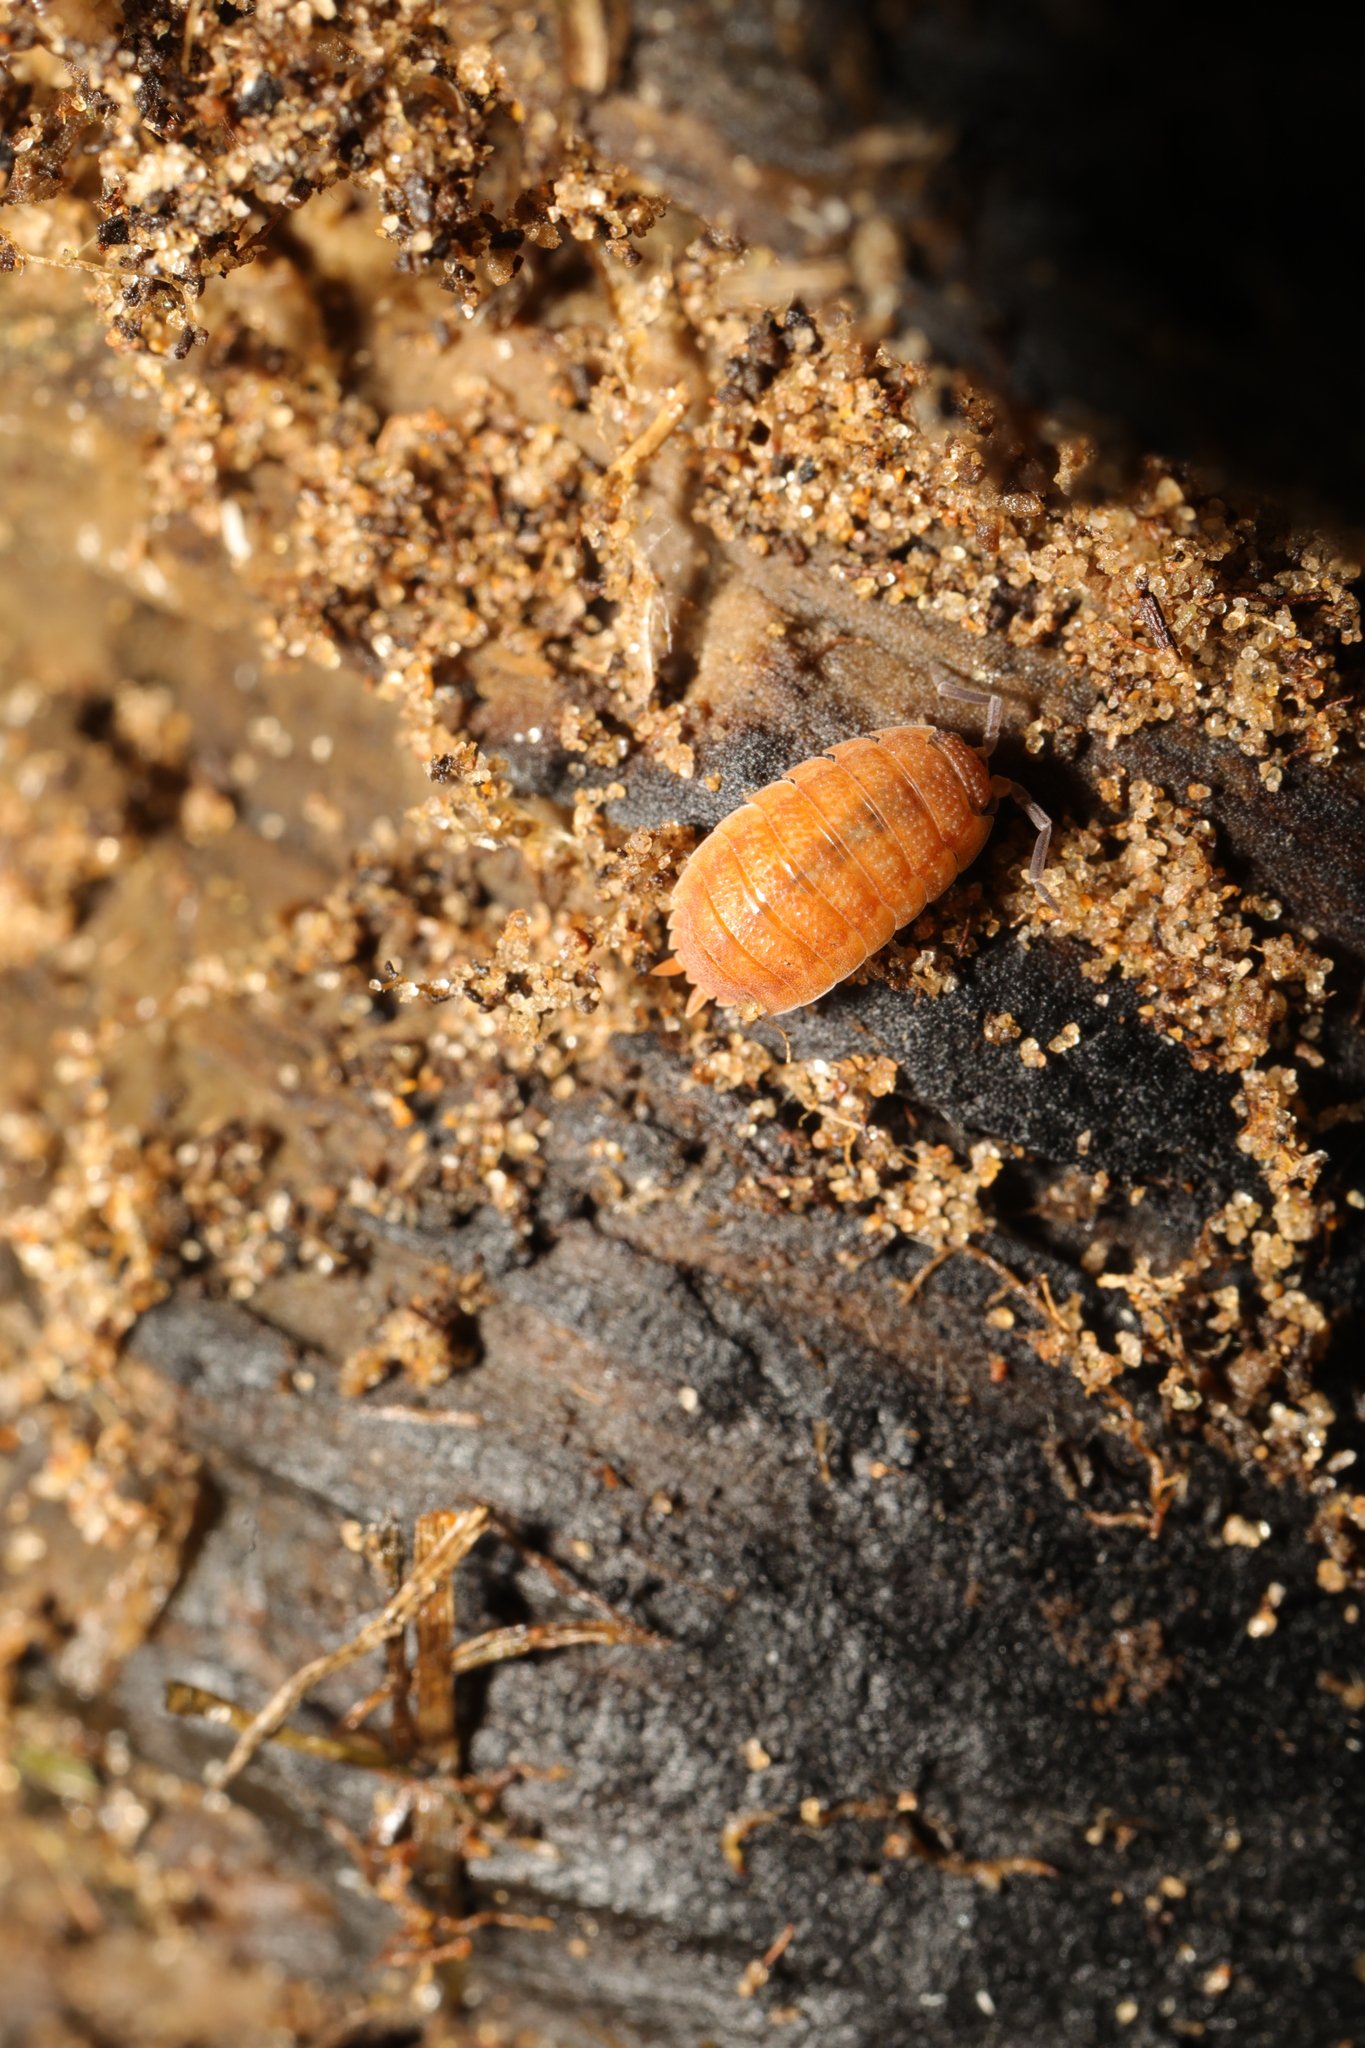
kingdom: Animalia
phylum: Arthropoda
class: Malacostraca
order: Isopoda
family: Porcellionidae
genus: Porcellio
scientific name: Porcellio scaber
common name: Common rough woodlouse
